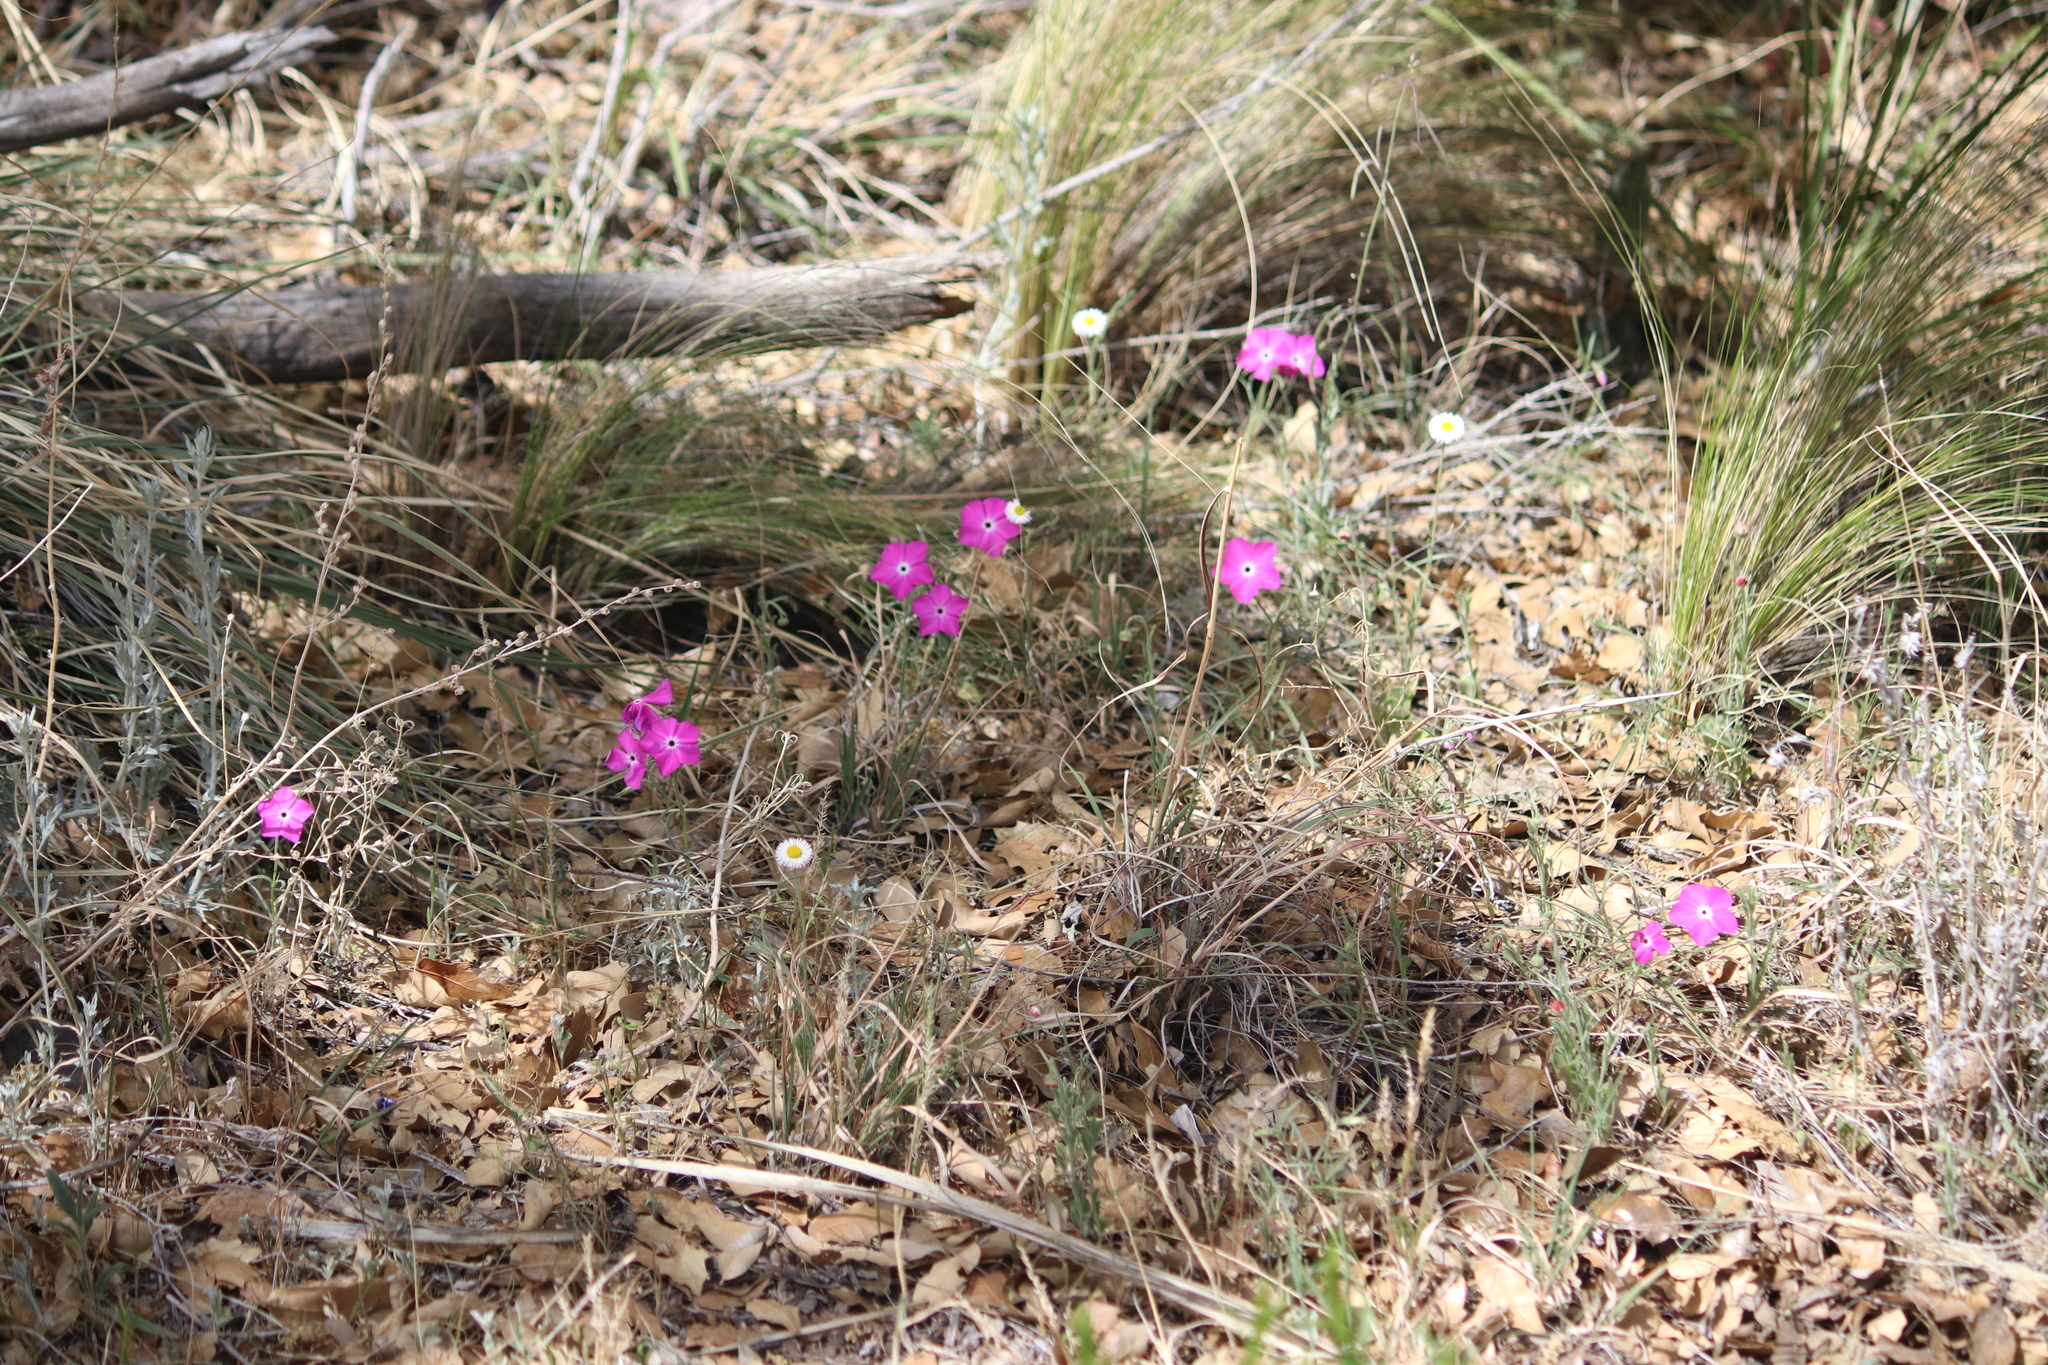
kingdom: Plantae
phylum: Tracheophyta
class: Magnoliopsida
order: Ericales
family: Polemoniaceae
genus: Phlox
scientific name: Phlox nana
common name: Santa fe phlox
